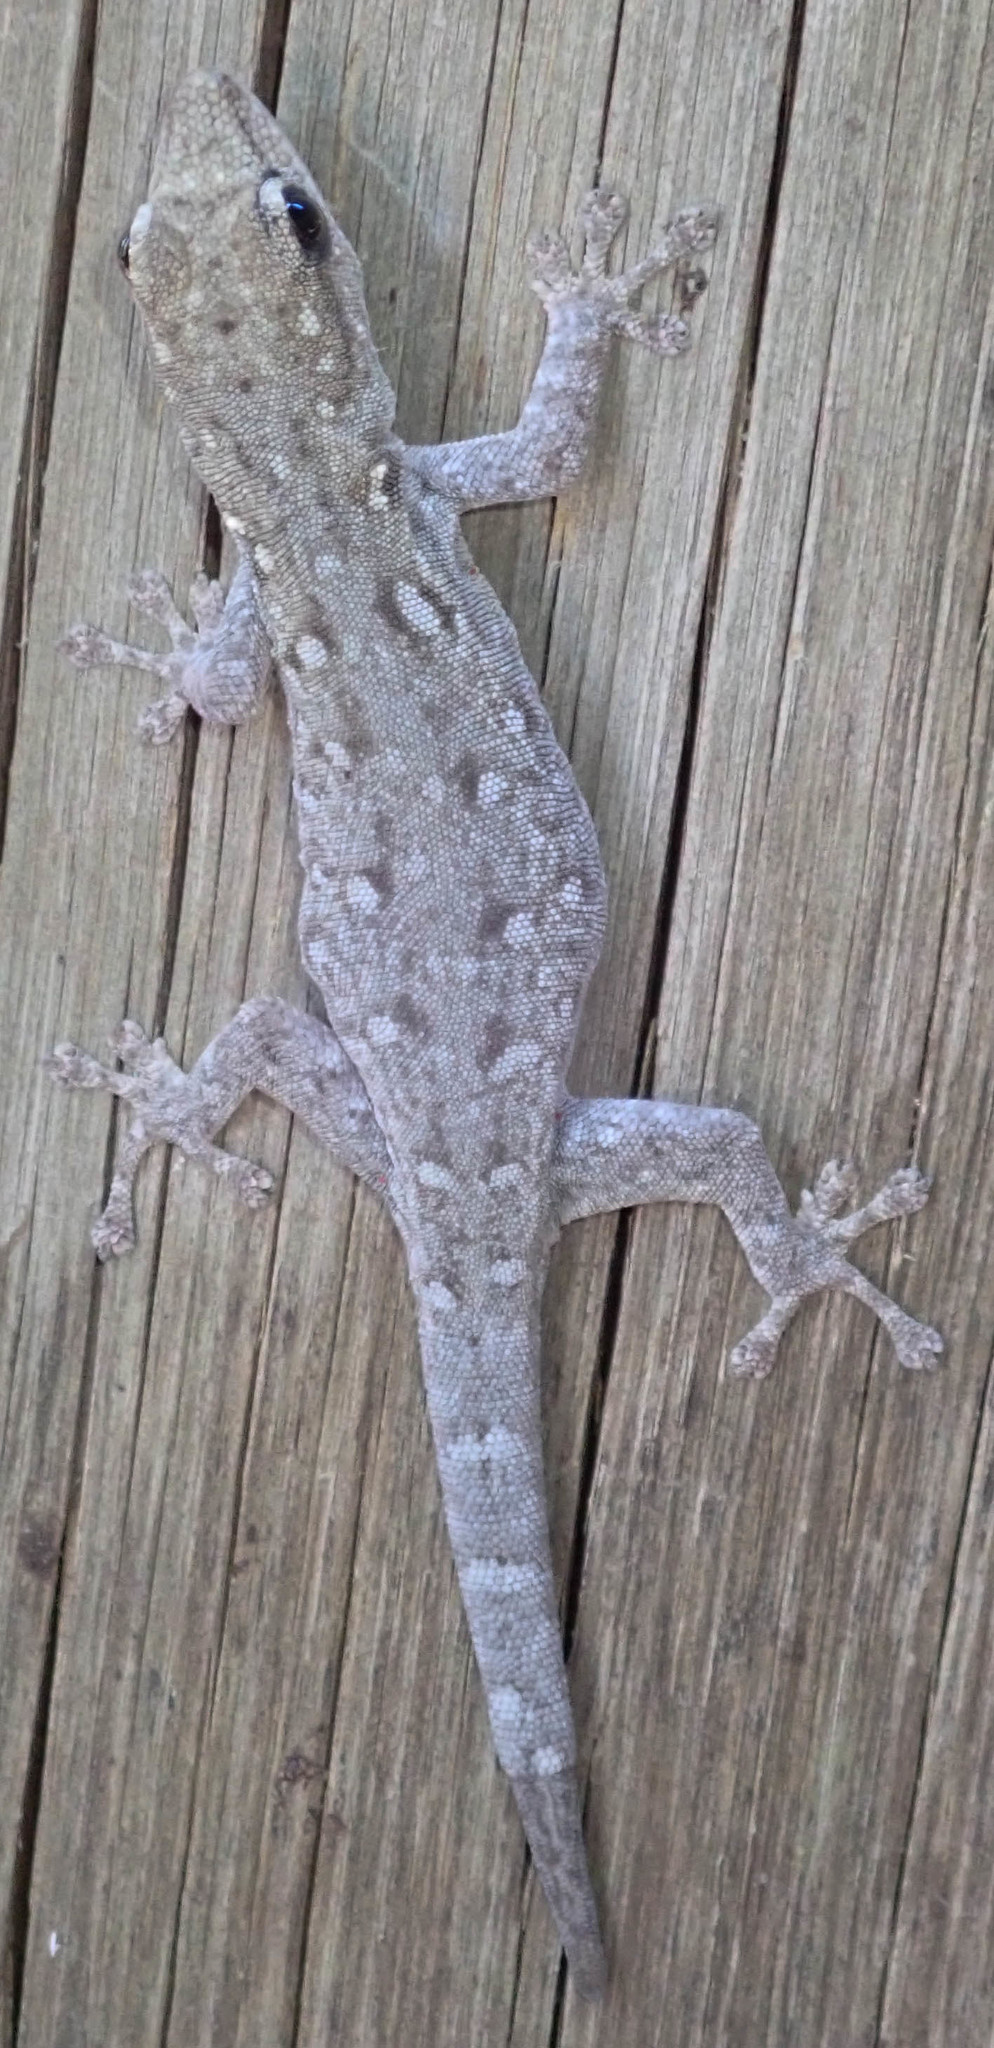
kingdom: Animalia
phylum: Chordata
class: Squamata
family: Gekkonidae
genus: Lygodactylus
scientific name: Lygodactylus chobiensis
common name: Okavango dwarf gecko
